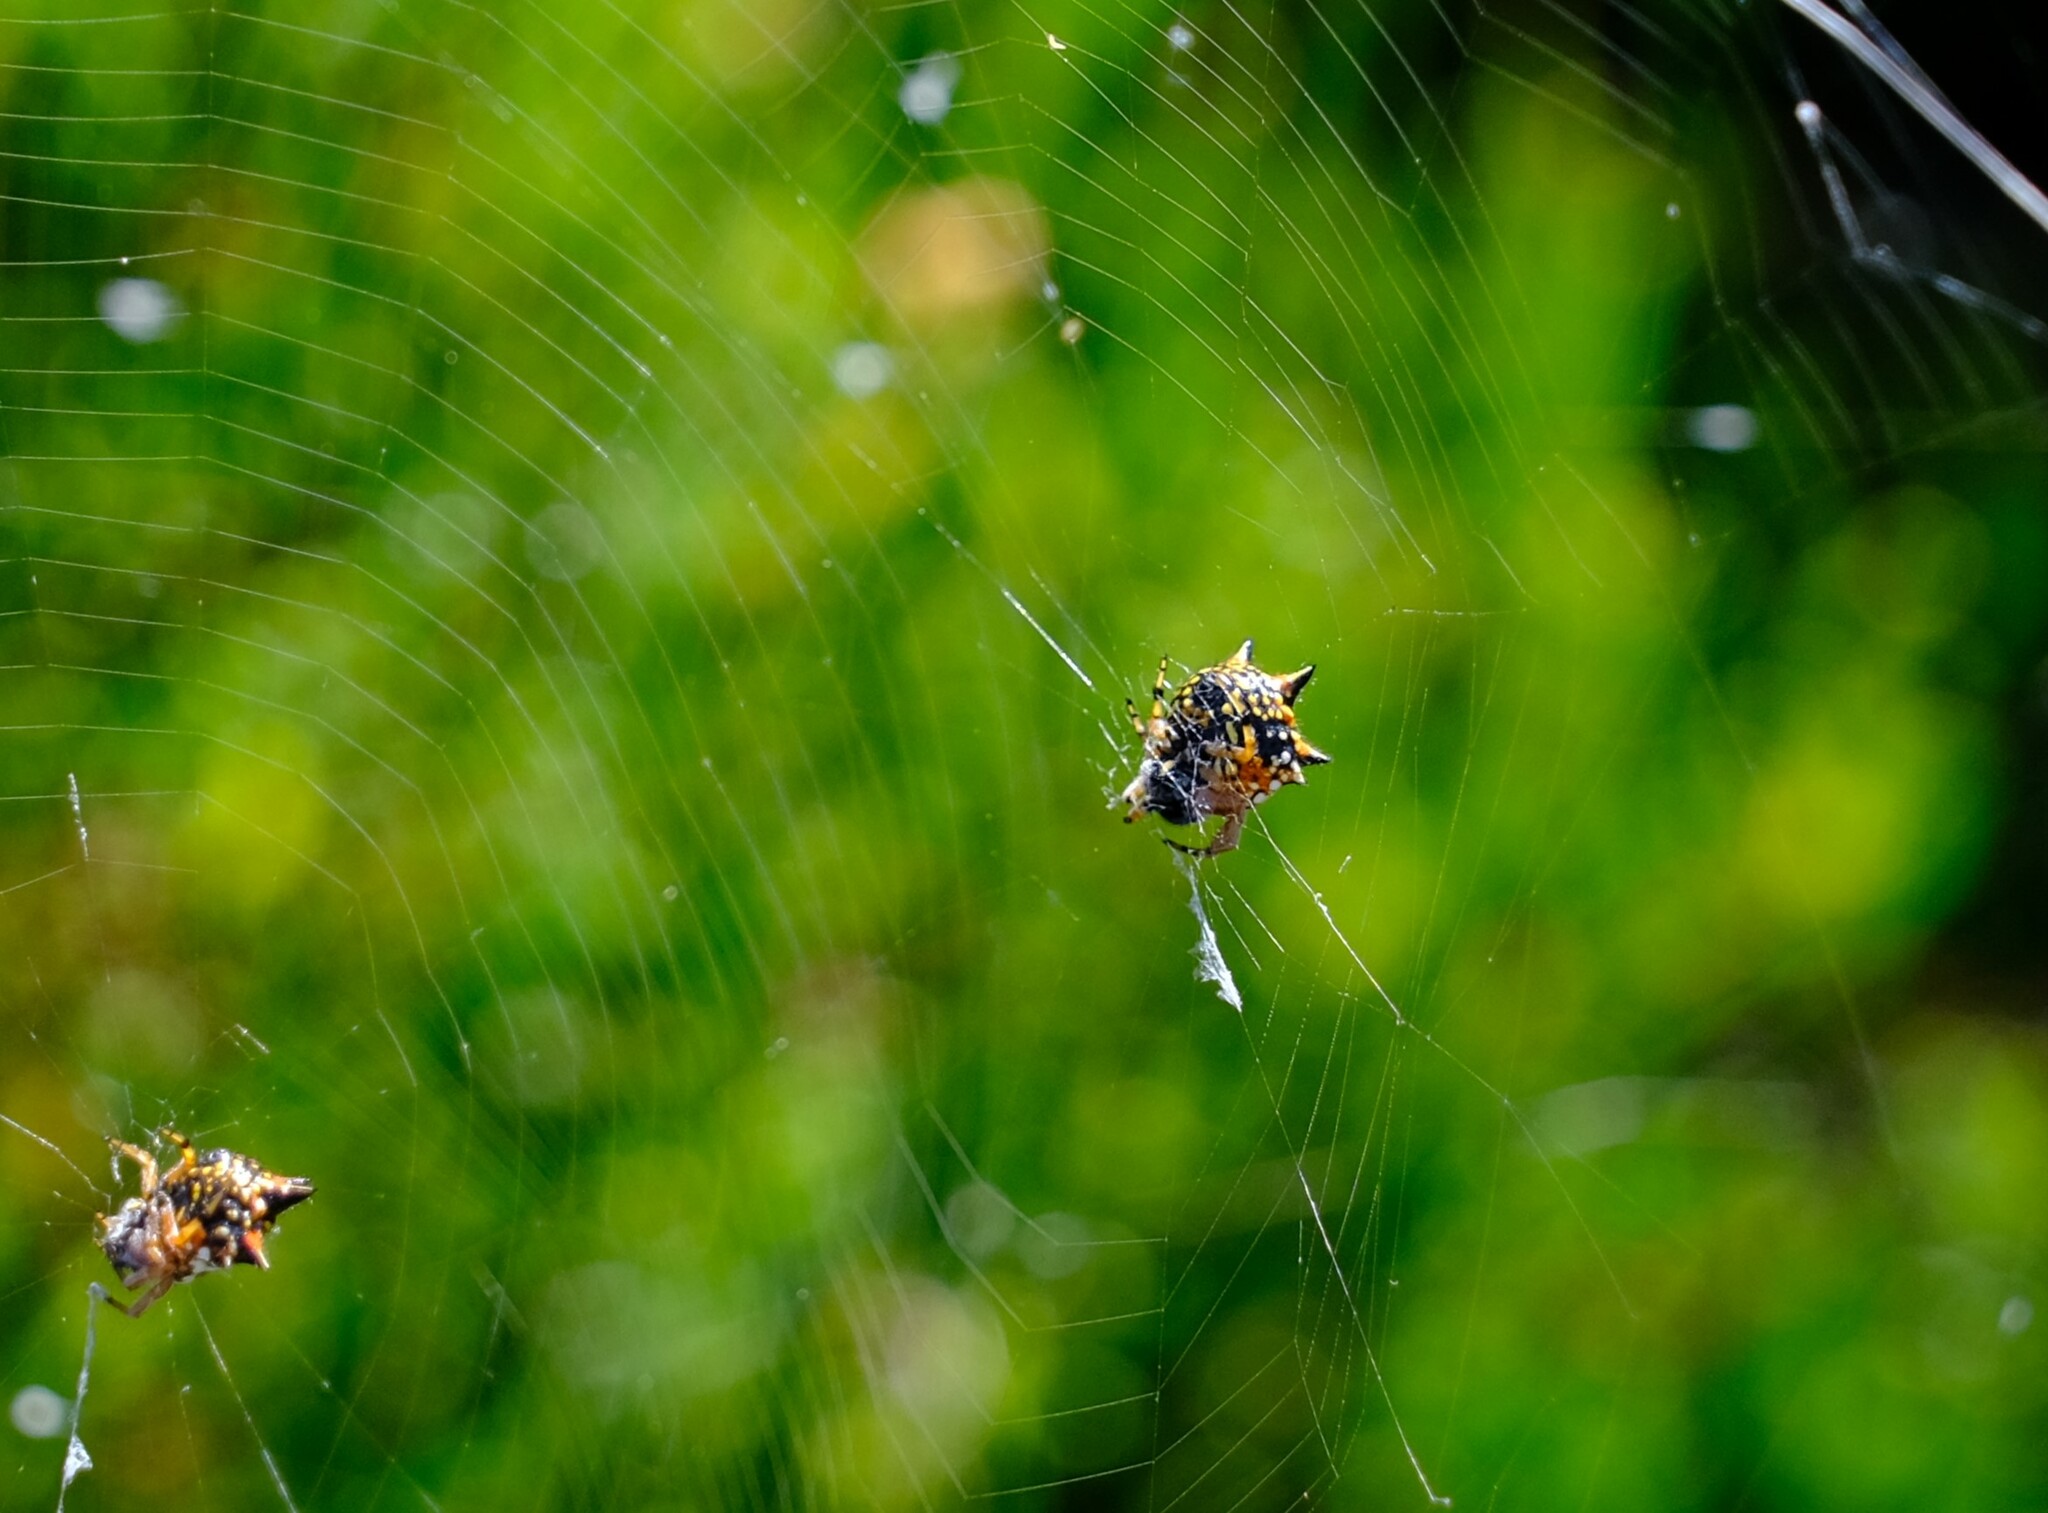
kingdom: Animalia
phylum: Arthropoda
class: Arachnida
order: Araneae
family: Araneidae
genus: Austracantha
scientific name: Austracantha minax
